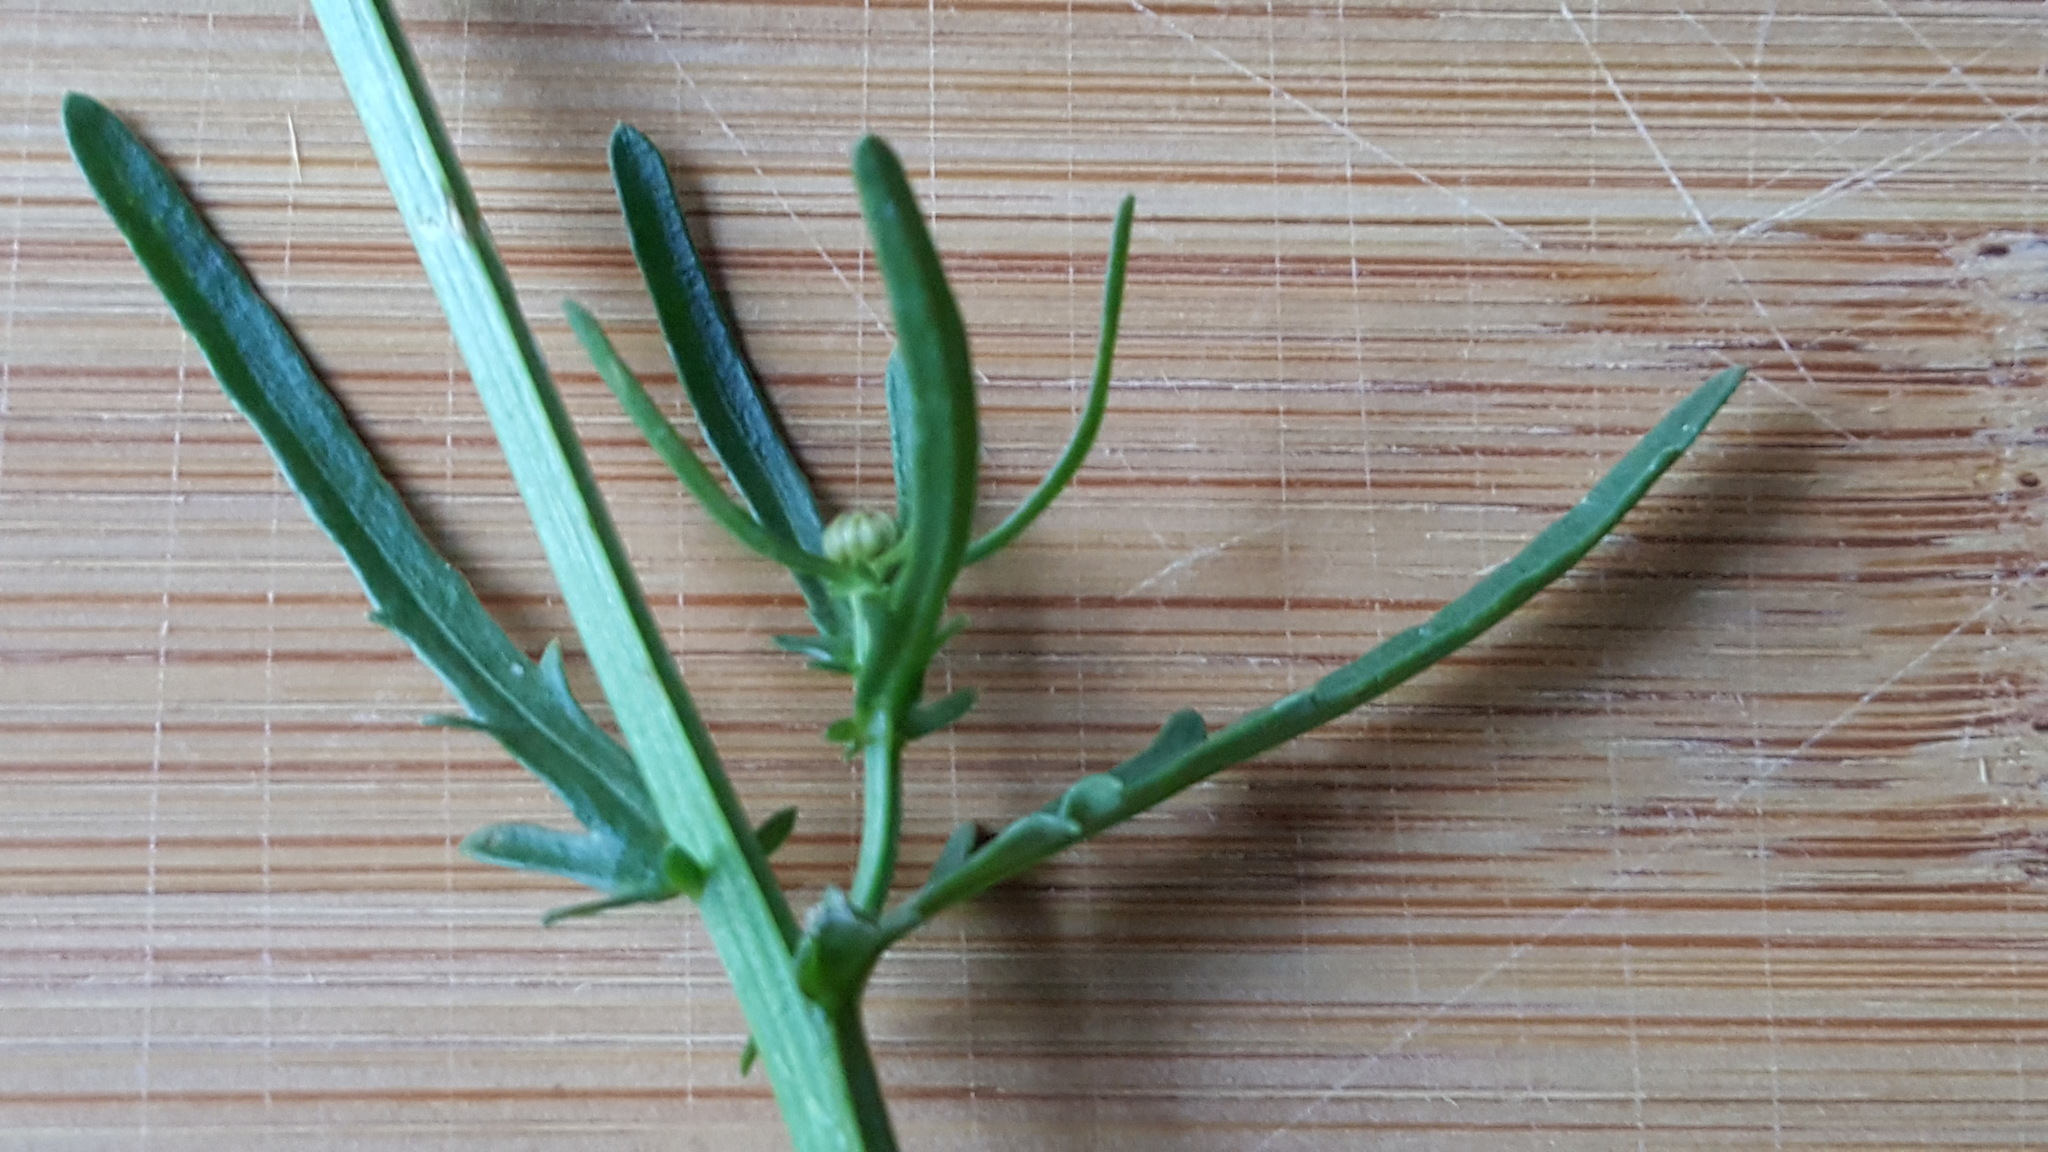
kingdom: Plantae
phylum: Tracheophyta
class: Magnoliopsida
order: Asterales
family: Asteraceae
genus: Leucanthemum
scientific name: Leucanthemum vulgare
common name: Oxeye daisy
